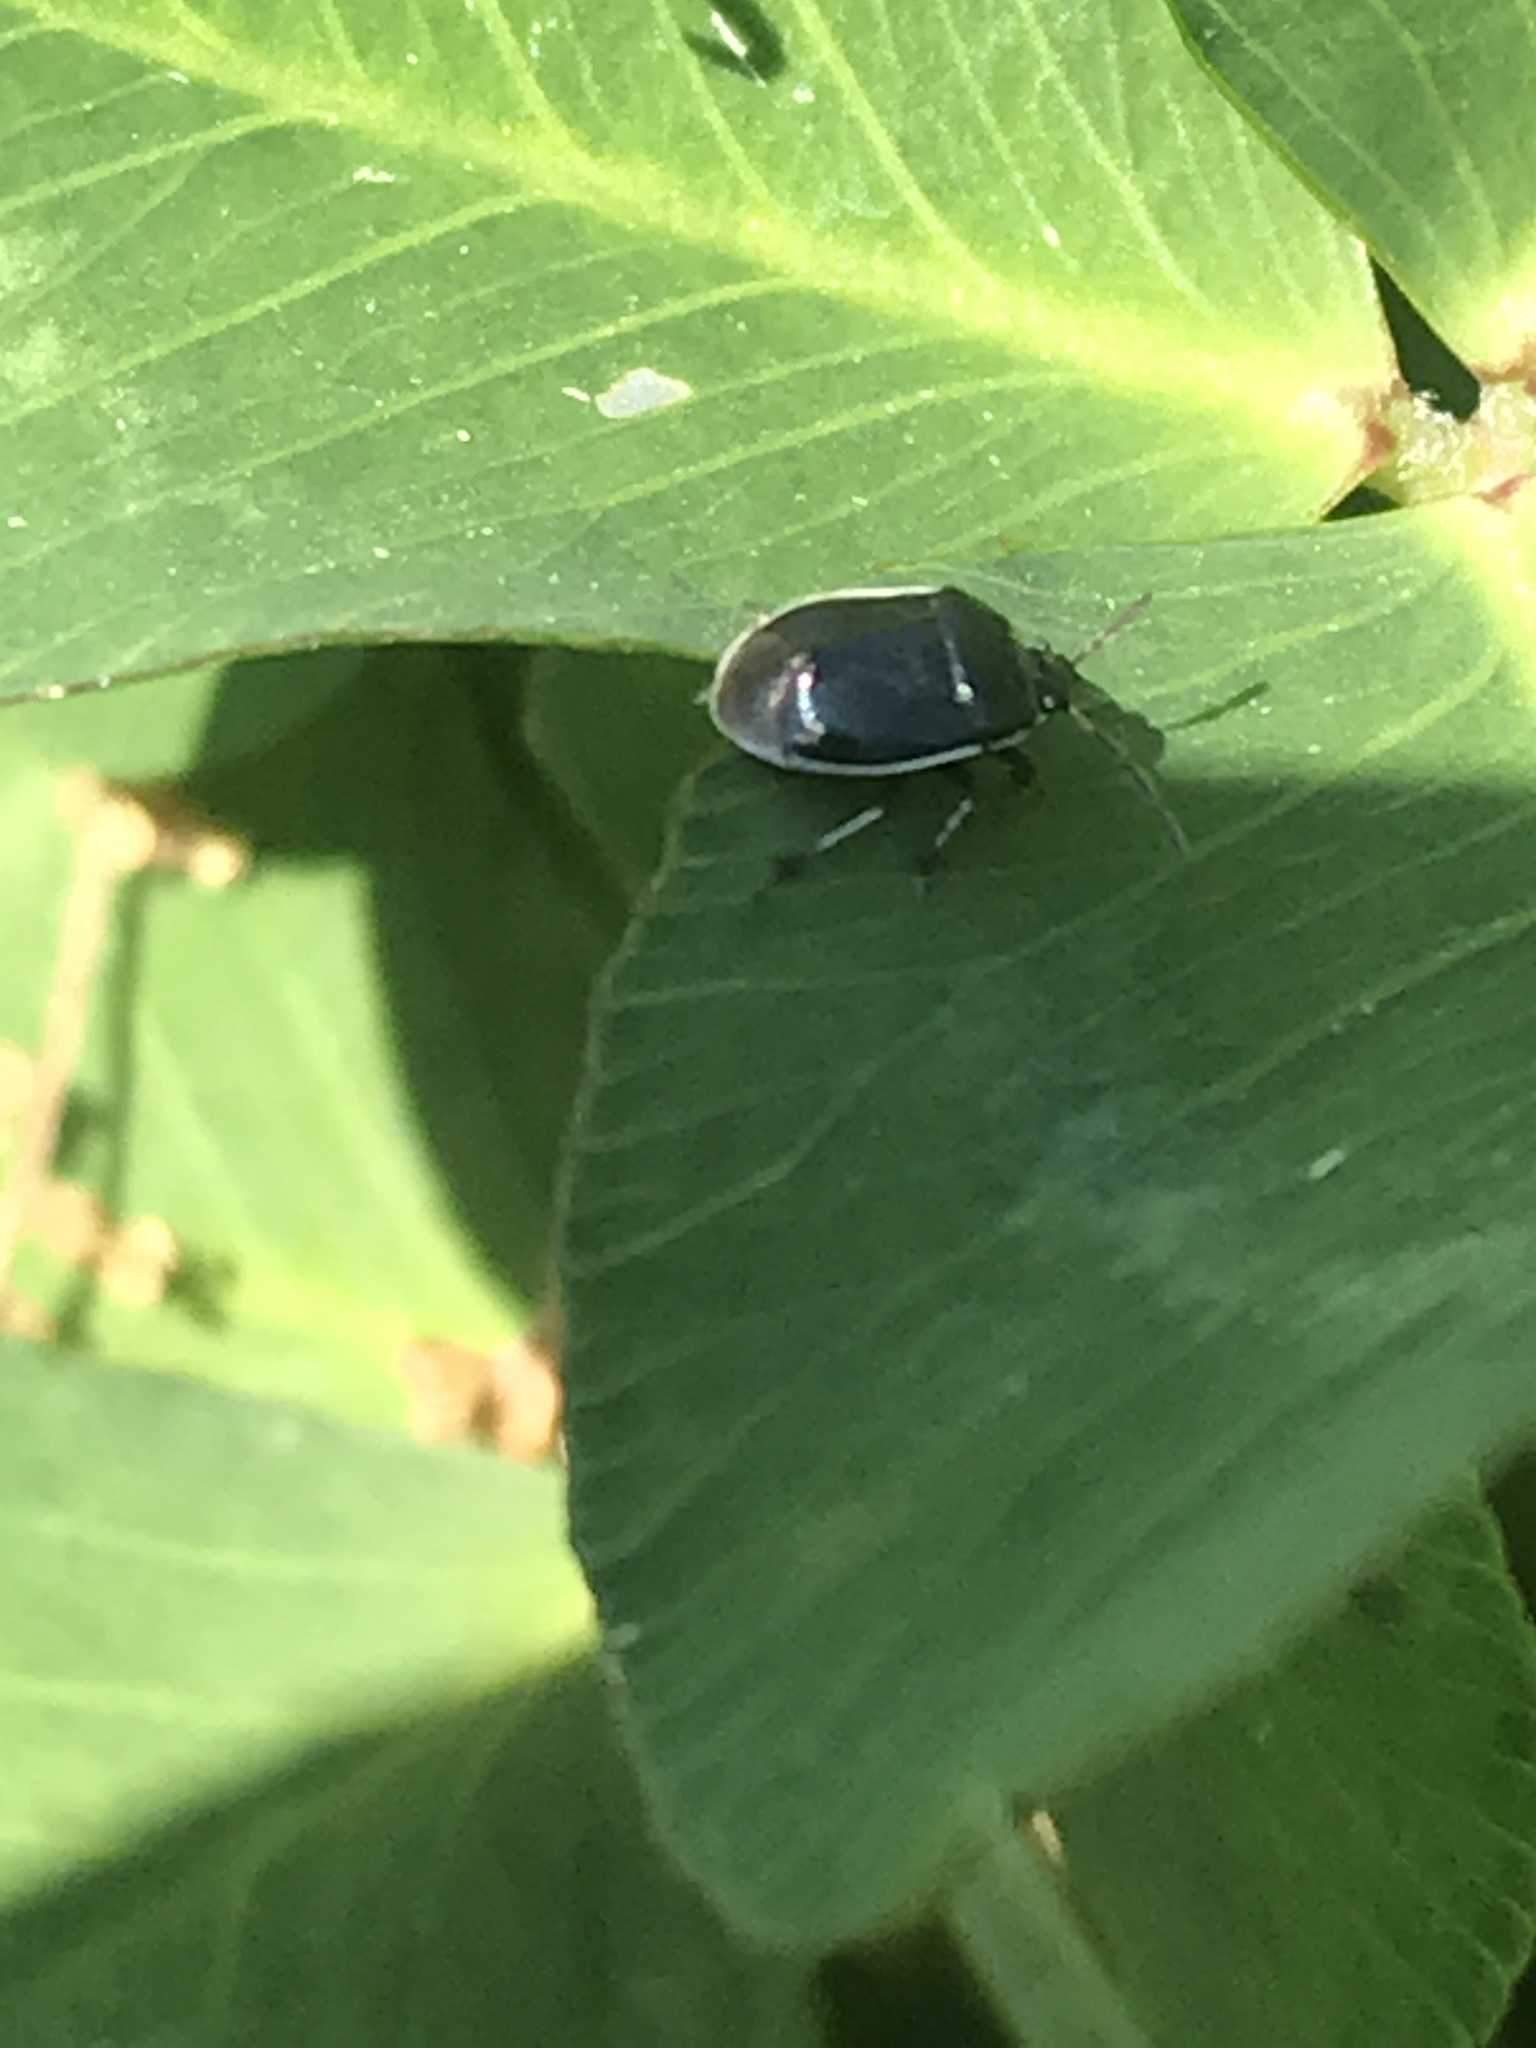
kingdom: Animalia
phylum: Arthropoda
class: Insecta
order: Hemiptera
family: Cydnidae
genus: Sehirus
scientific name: Sehirus cinctus
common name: White-margined burrower bug
